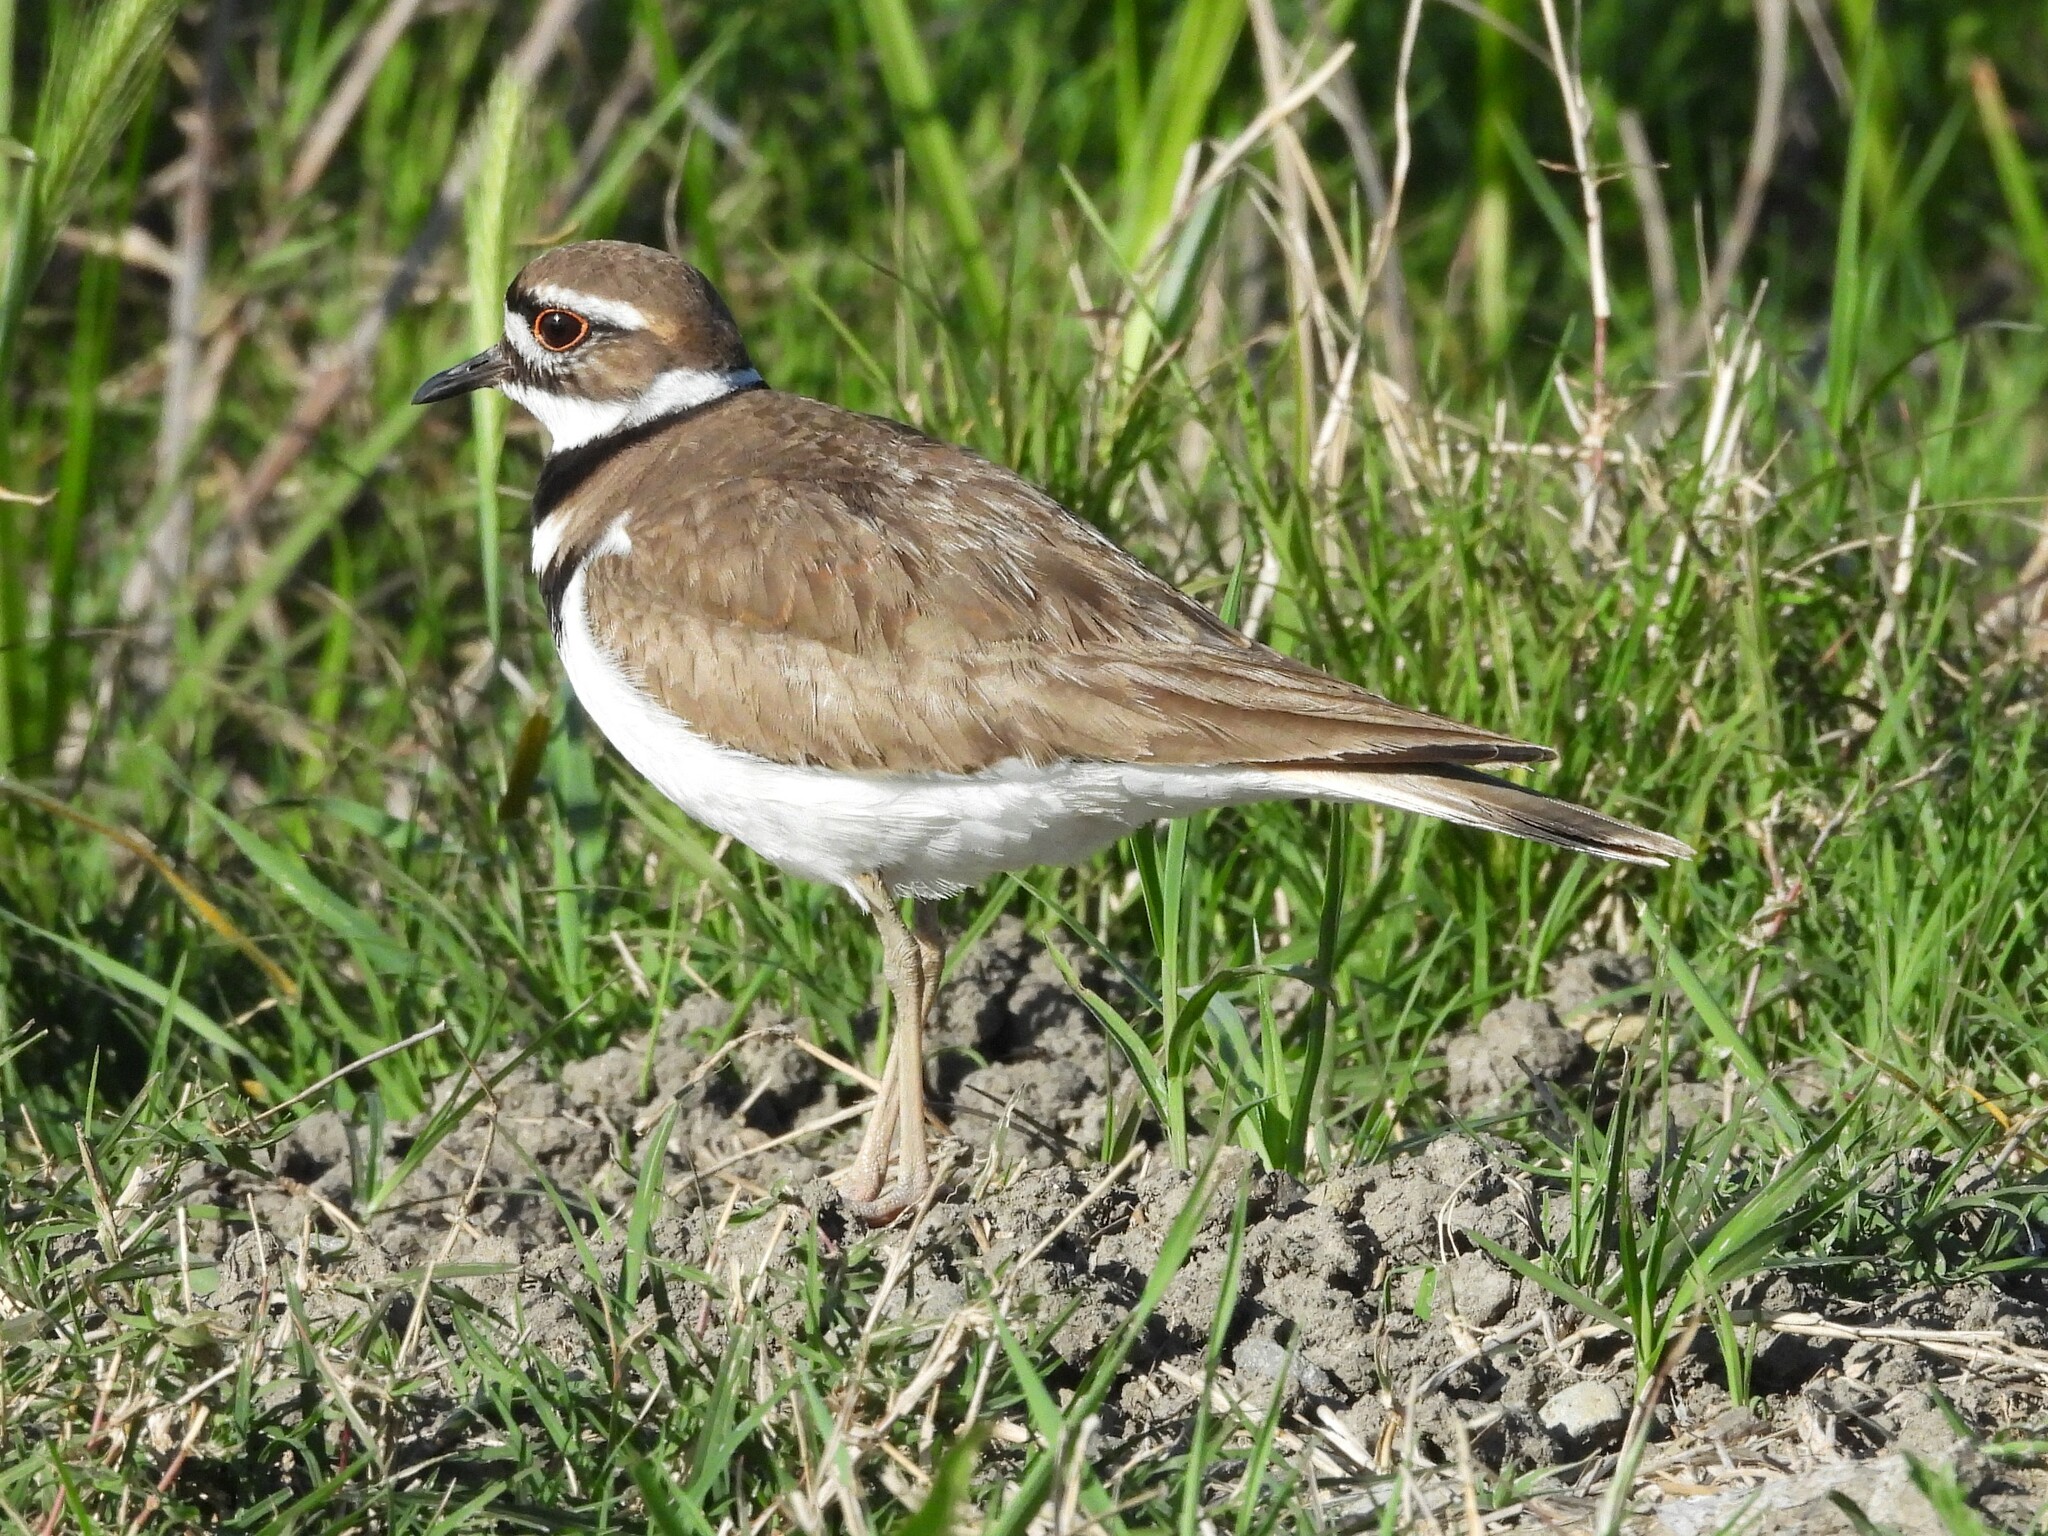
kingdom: Animalia
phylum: Chordata
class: Aves
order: Charadriiformes
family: Charadriidae
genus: Charadrius
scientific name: Charadrius vociferus
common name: Killdeer
